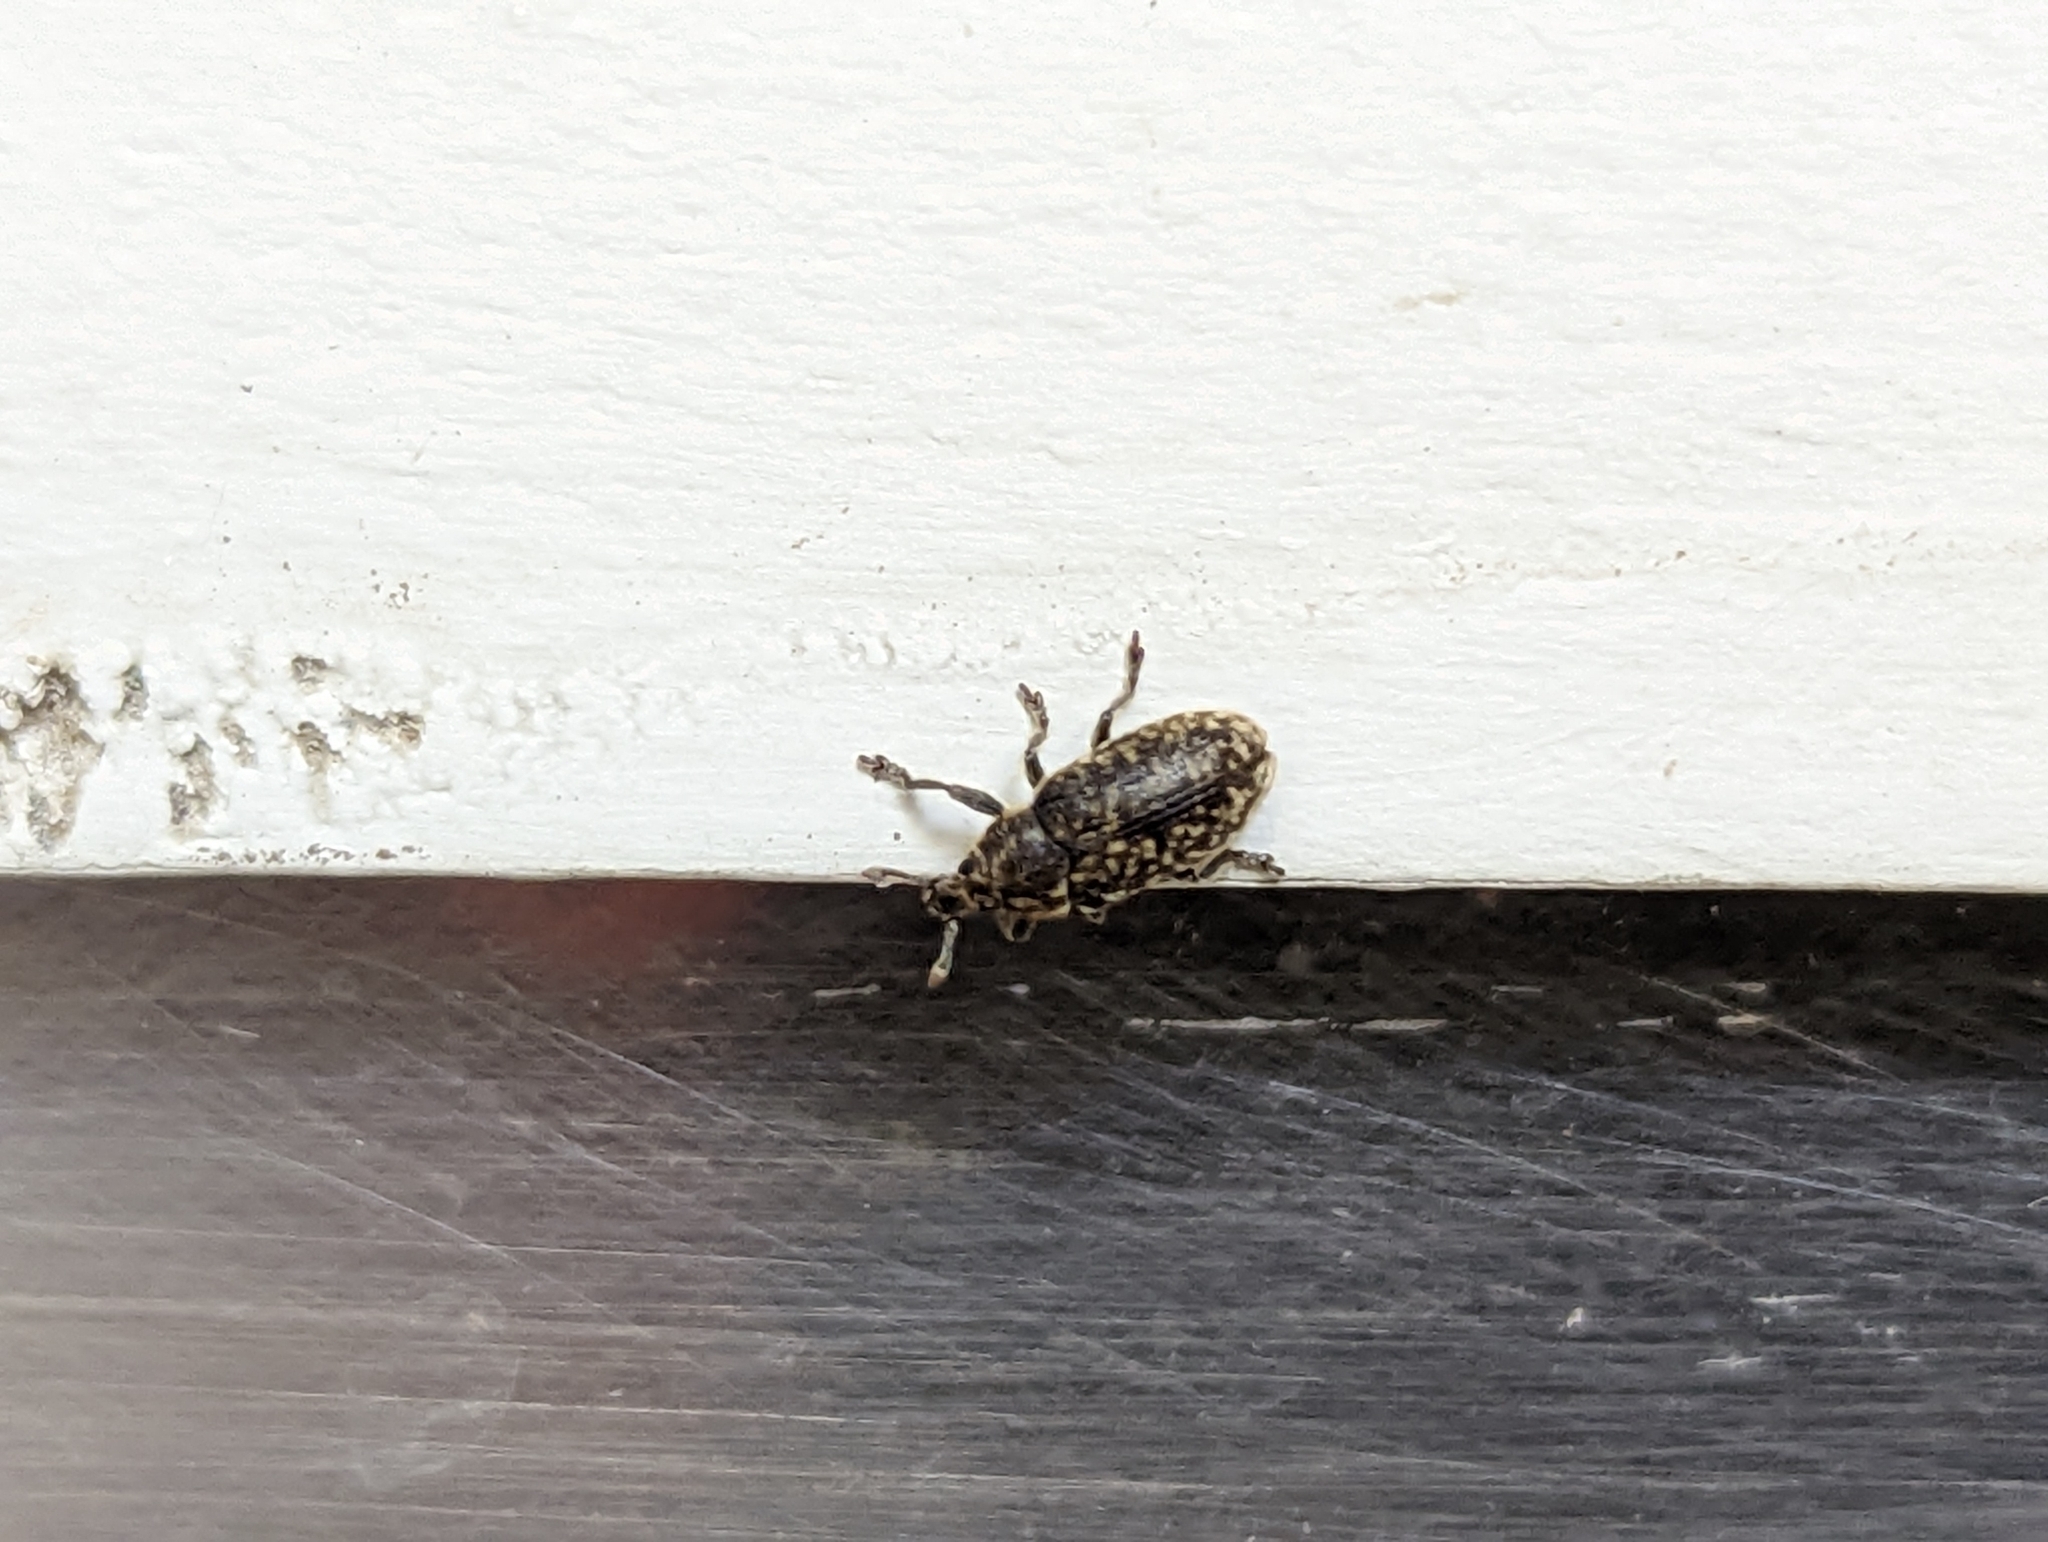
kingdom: Animalia
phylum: Arthropoda
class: Insecta
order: Coleoptera
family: Curculionidae
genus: Rhinocyllus
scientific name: Rhinocyllus conicus
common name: Weevil
